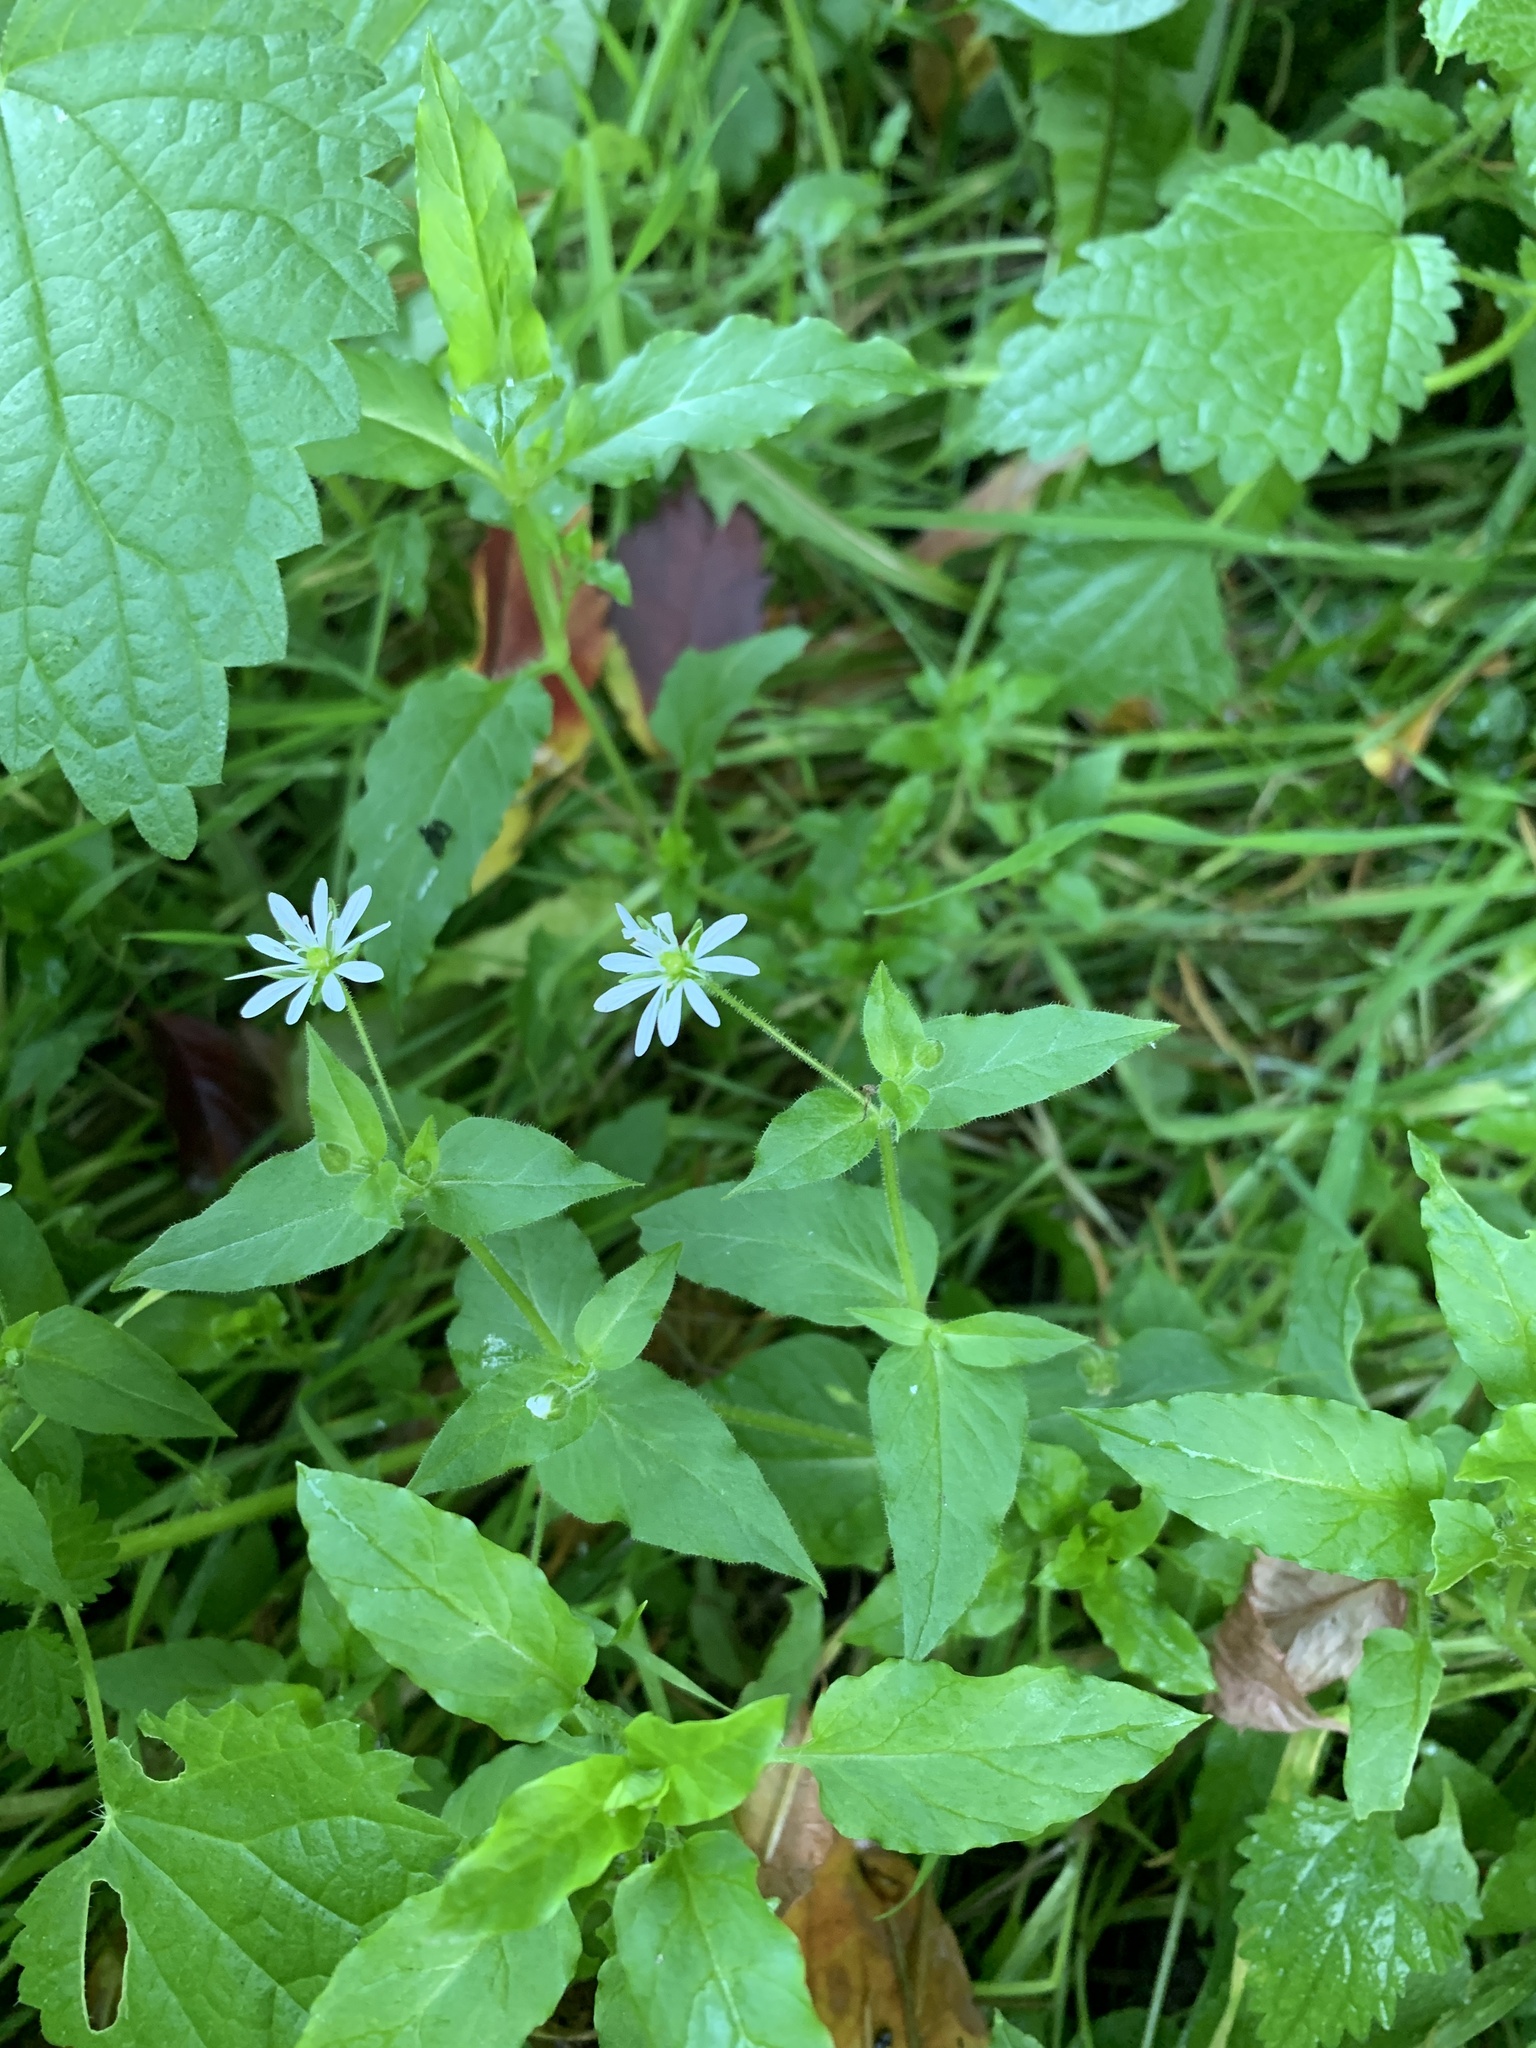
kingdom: Plantae
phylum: Tracheophyta
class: Magnoliopsida
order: Caryophyllales
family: Caryophyllaceae
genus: Stellaria
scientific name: Stellaria aquatica
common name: Water chickweed
